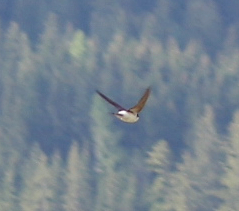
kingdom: Animalia
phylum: Chordata
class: Aves
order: Passeriformes
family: Hirundinidae
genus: Delichon
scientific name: Delichon urbicum
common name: Common house martin
